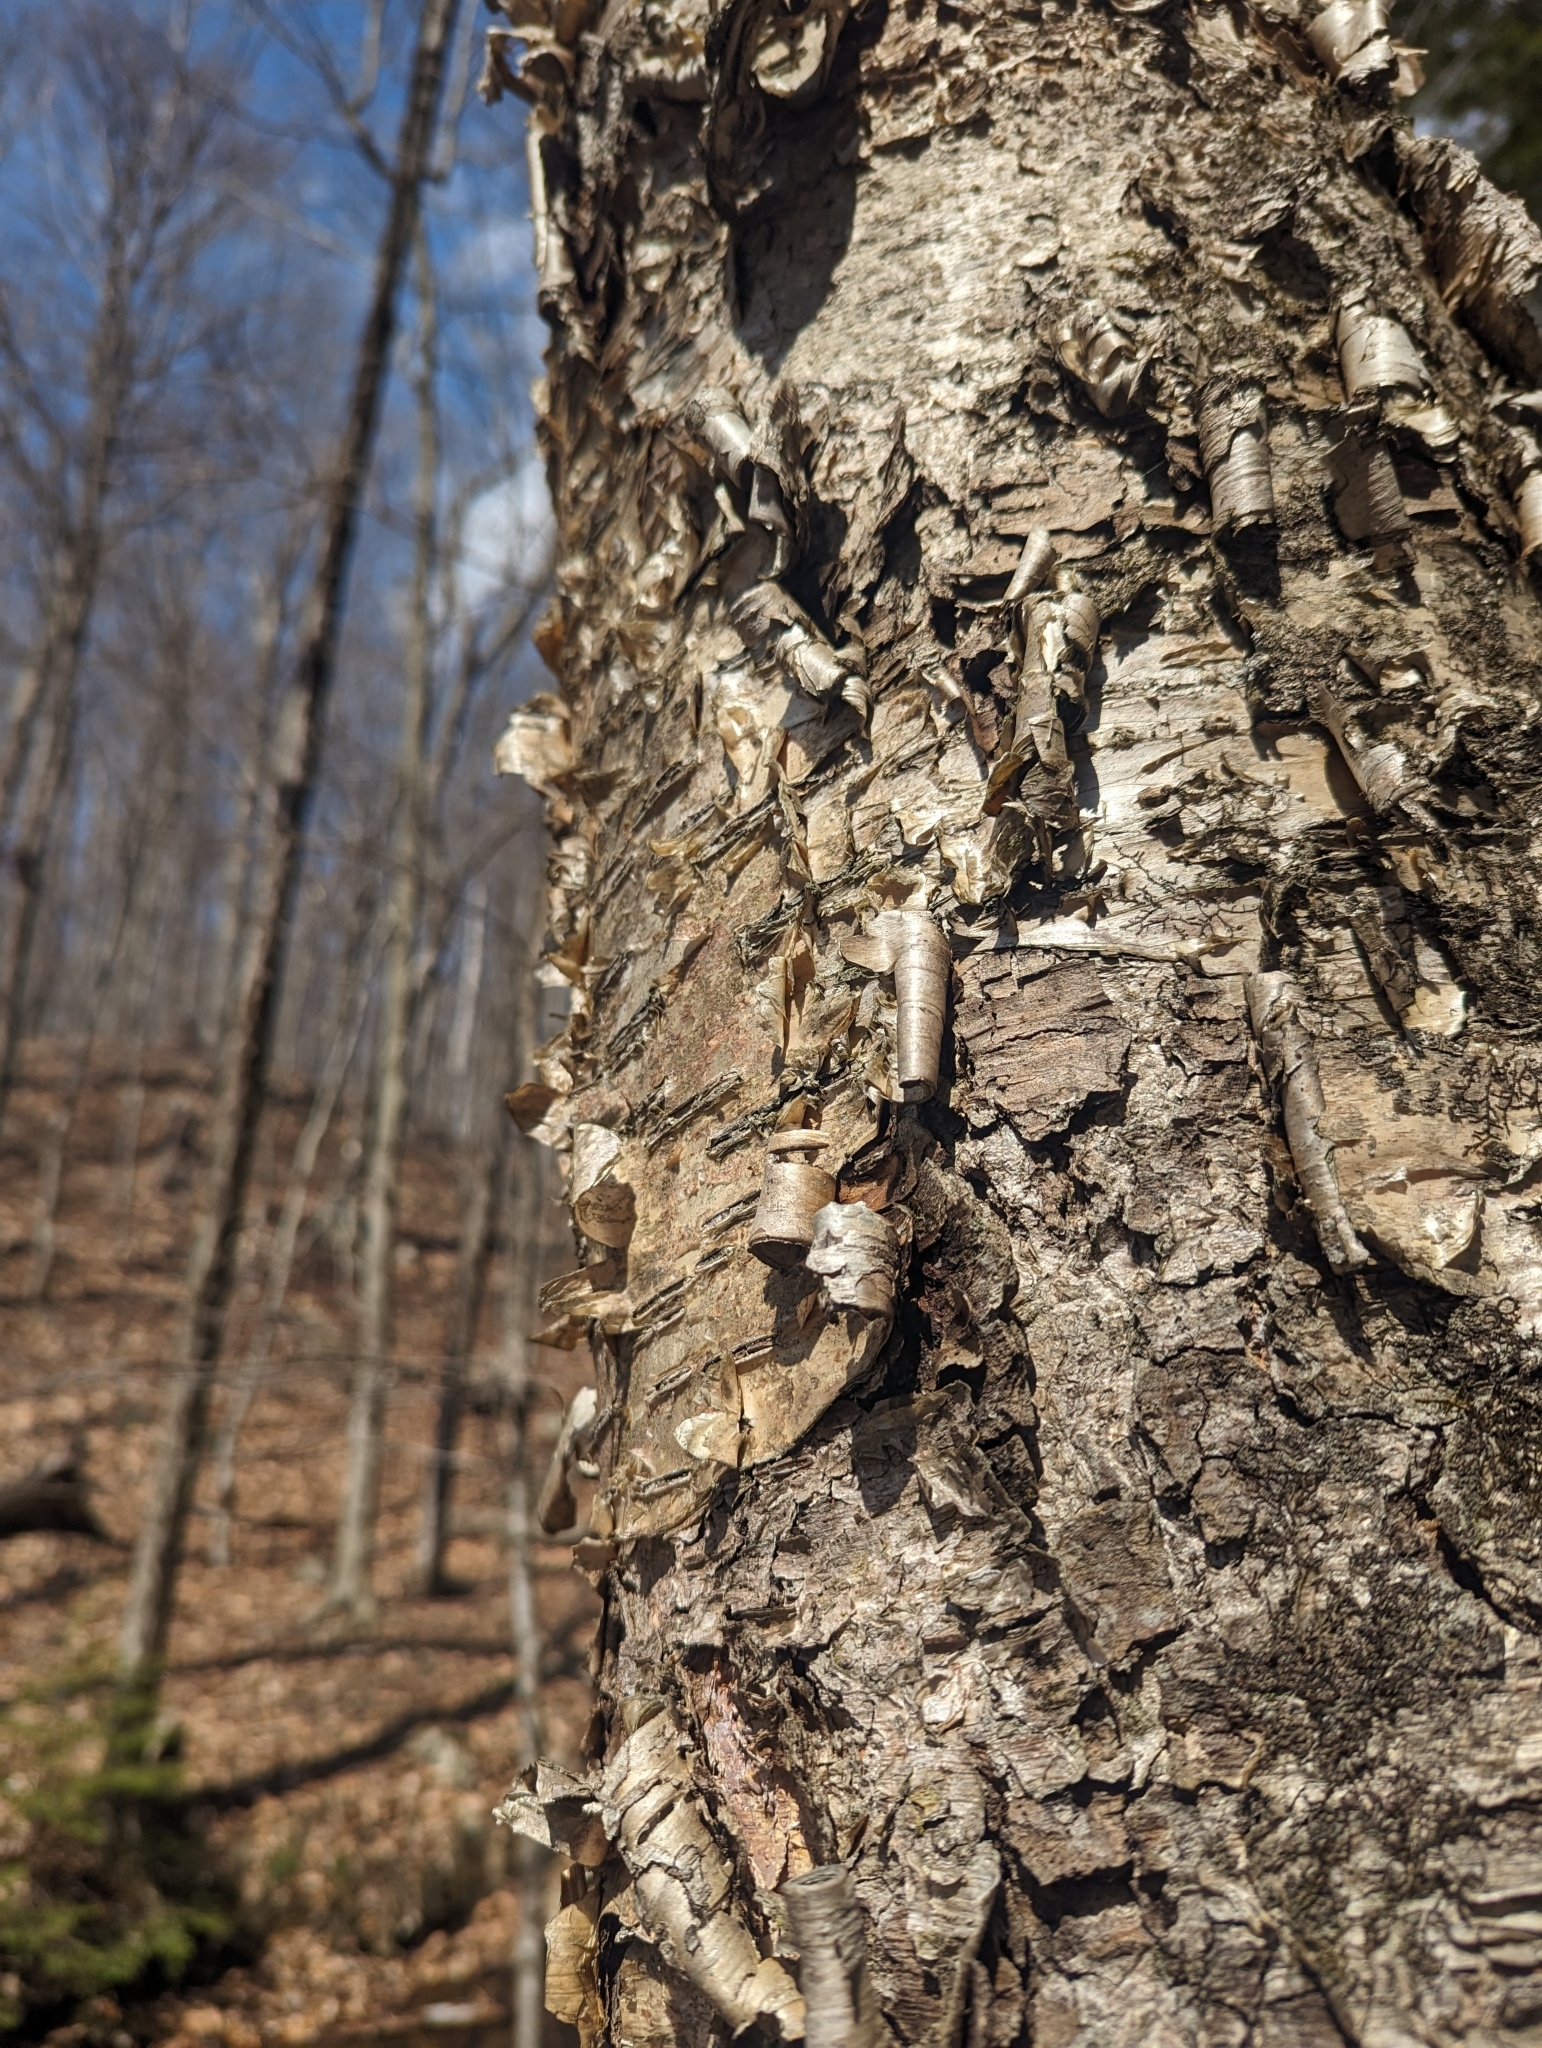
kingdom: Plantae
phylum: Tracheophyta
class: Magnoliopsida
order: Fagales
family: Betulaceae
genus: Betula
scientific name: Betula alleghaniensis
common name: Yellow birch
